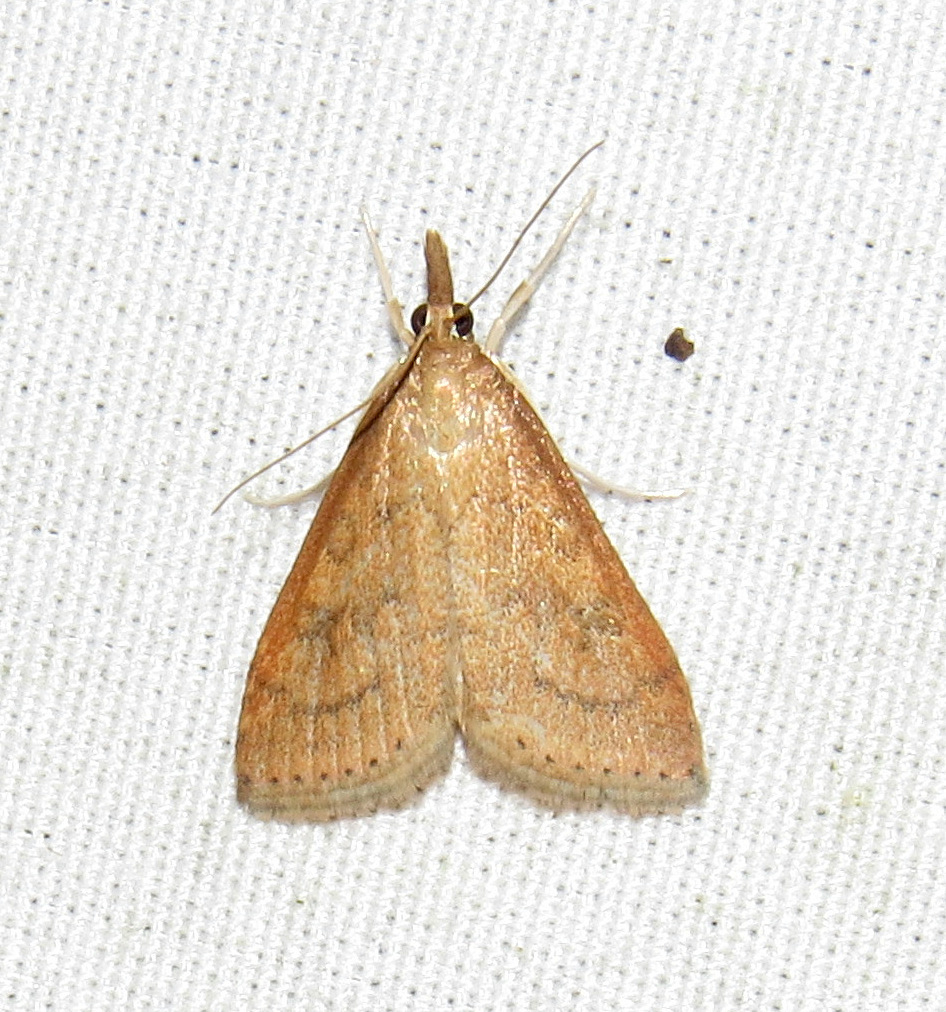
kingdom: Animalia
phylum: Arthropoda
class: Insecta
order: Lepidoptera
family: Crambidae
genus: Udea
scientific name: Udea rubigalis
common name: Celery leaftier moth
